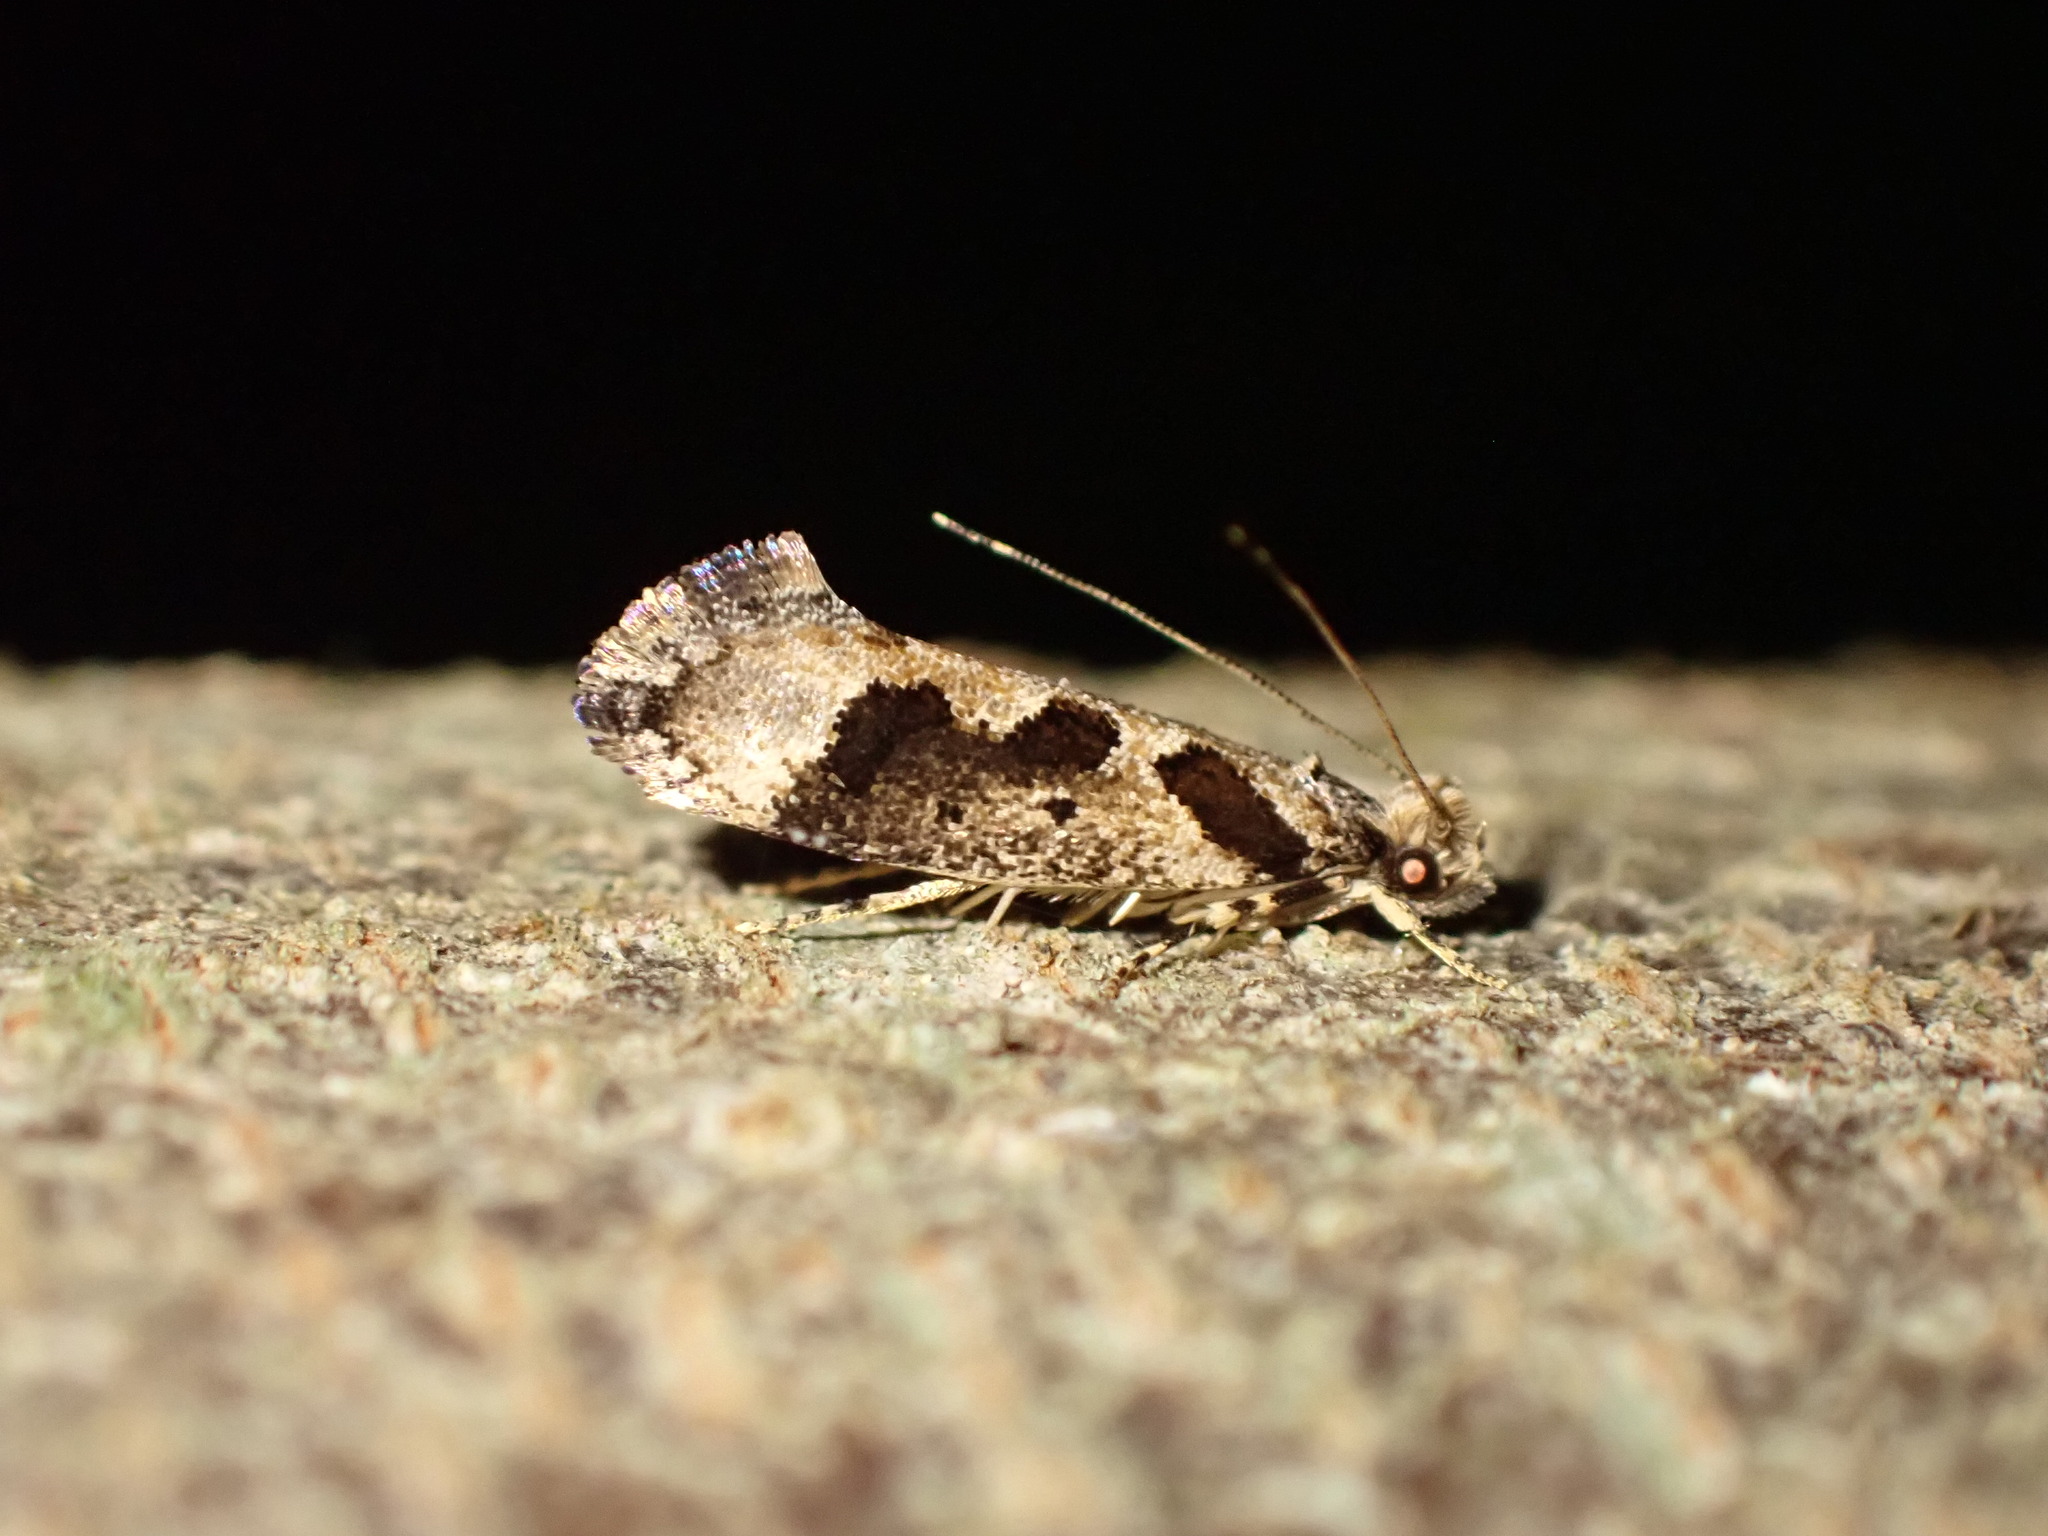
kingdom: Animalia
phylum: Arthropoda
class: Insecta
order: Lepidoptera
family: Tineidae
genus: Erechthias
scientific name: Erechthias capnitis
